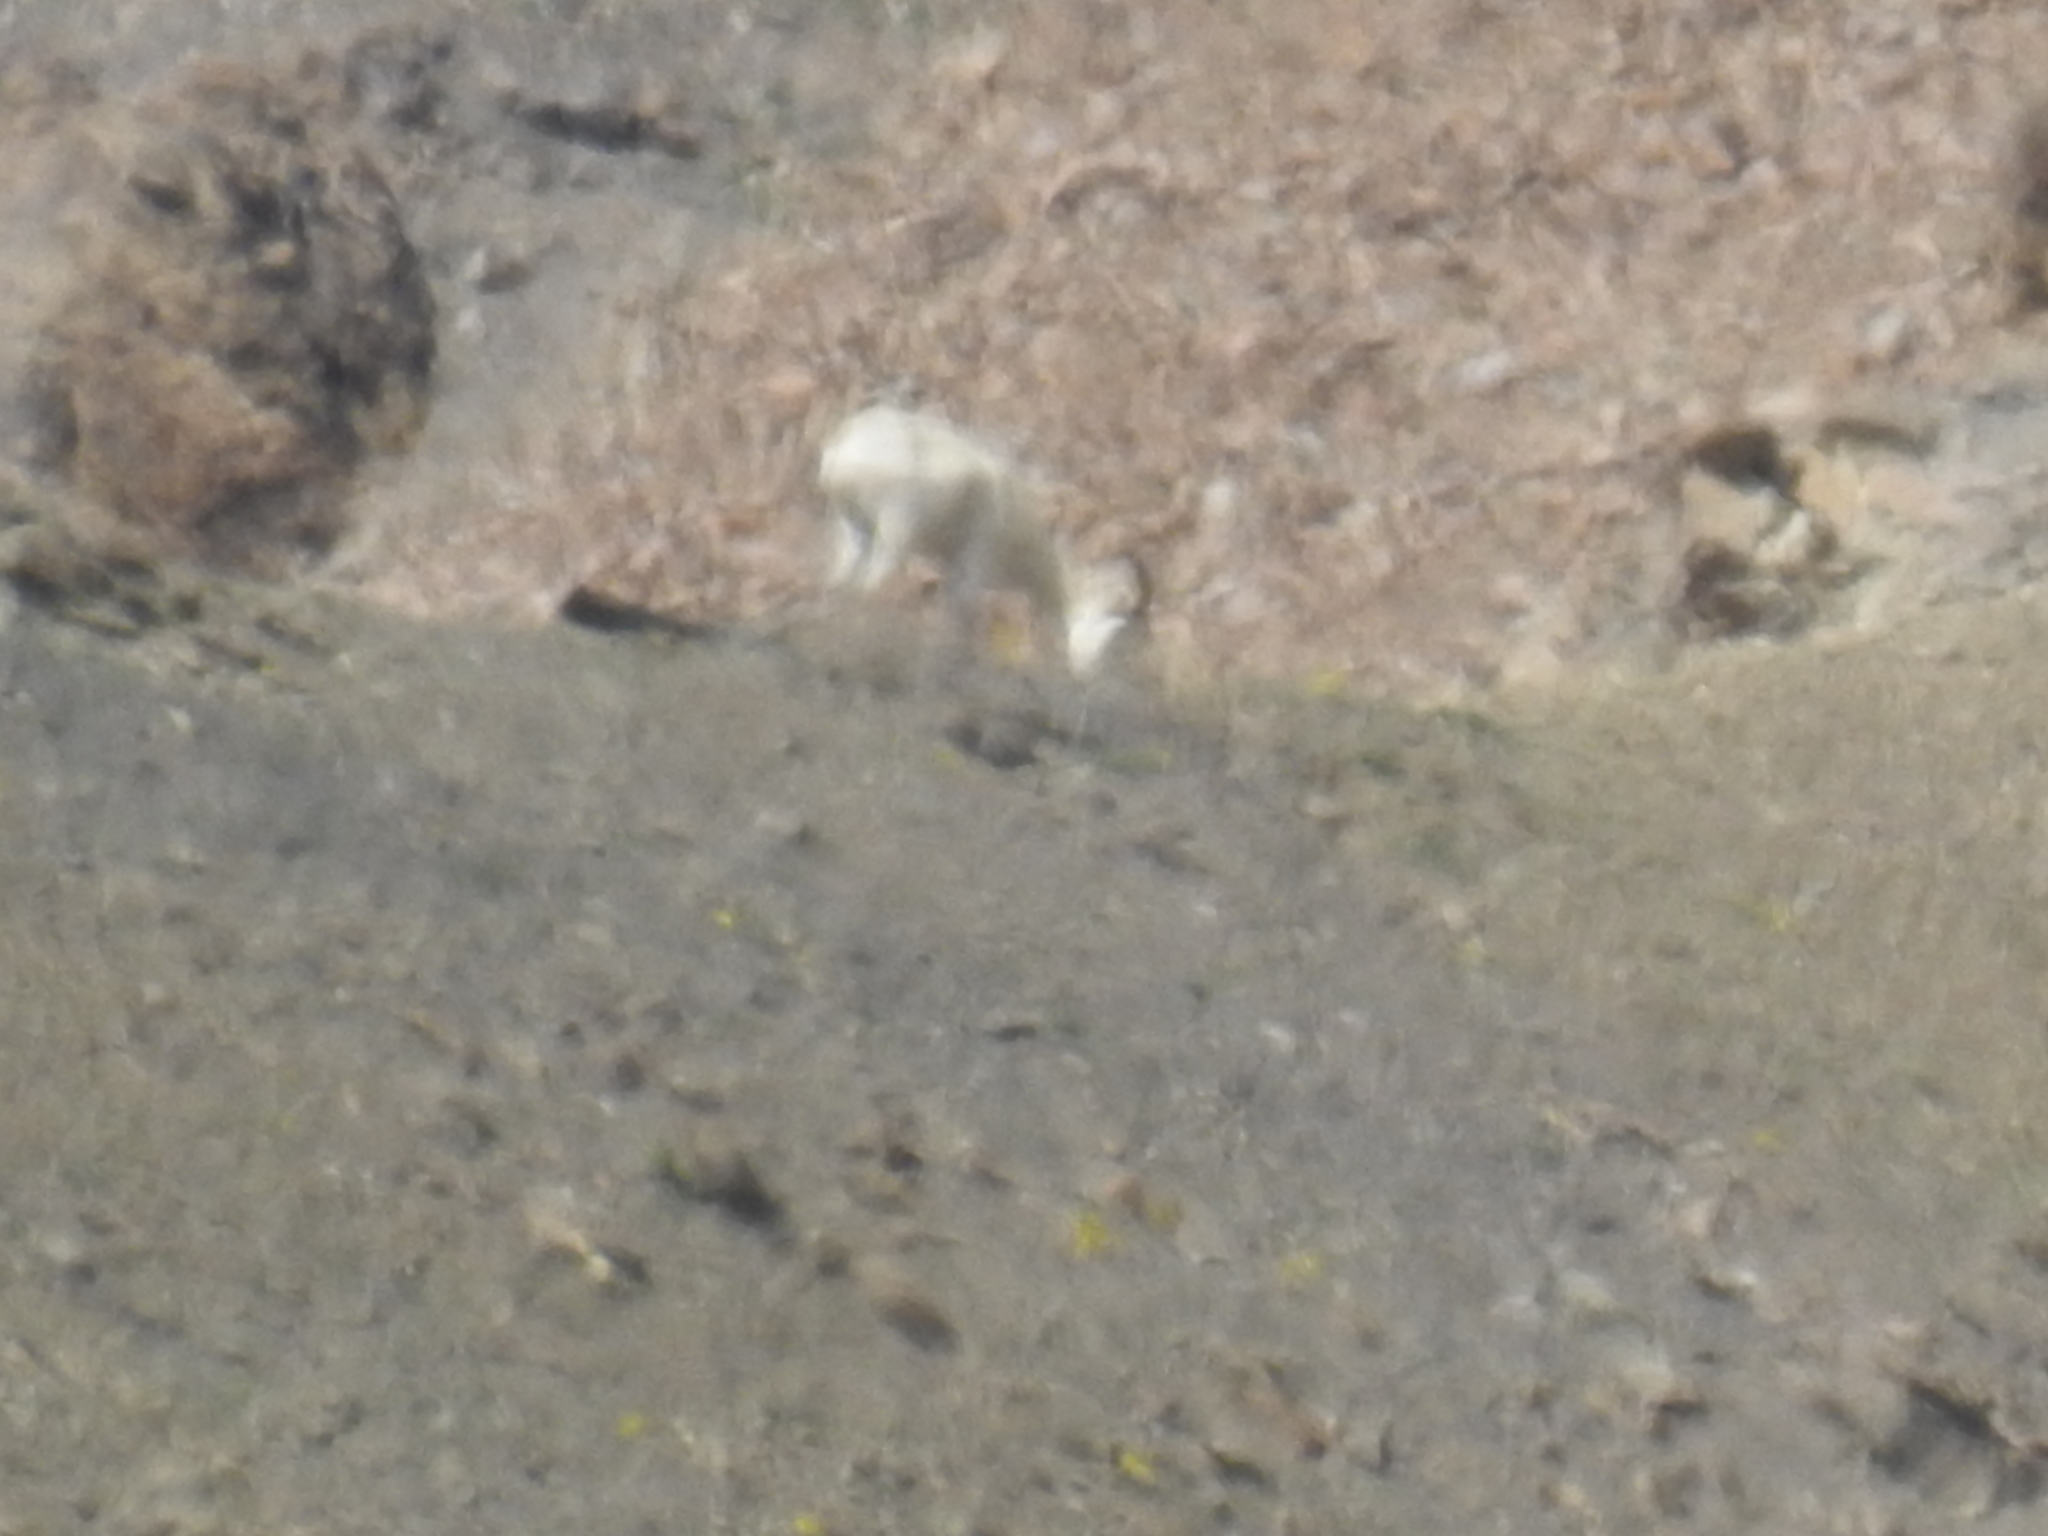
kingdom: Animalia
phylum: Chordata
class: Mammalia
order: Artiodactyla
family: Bovidae
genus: Ovis
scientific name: Ovis dalli
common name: Dall's sheep
